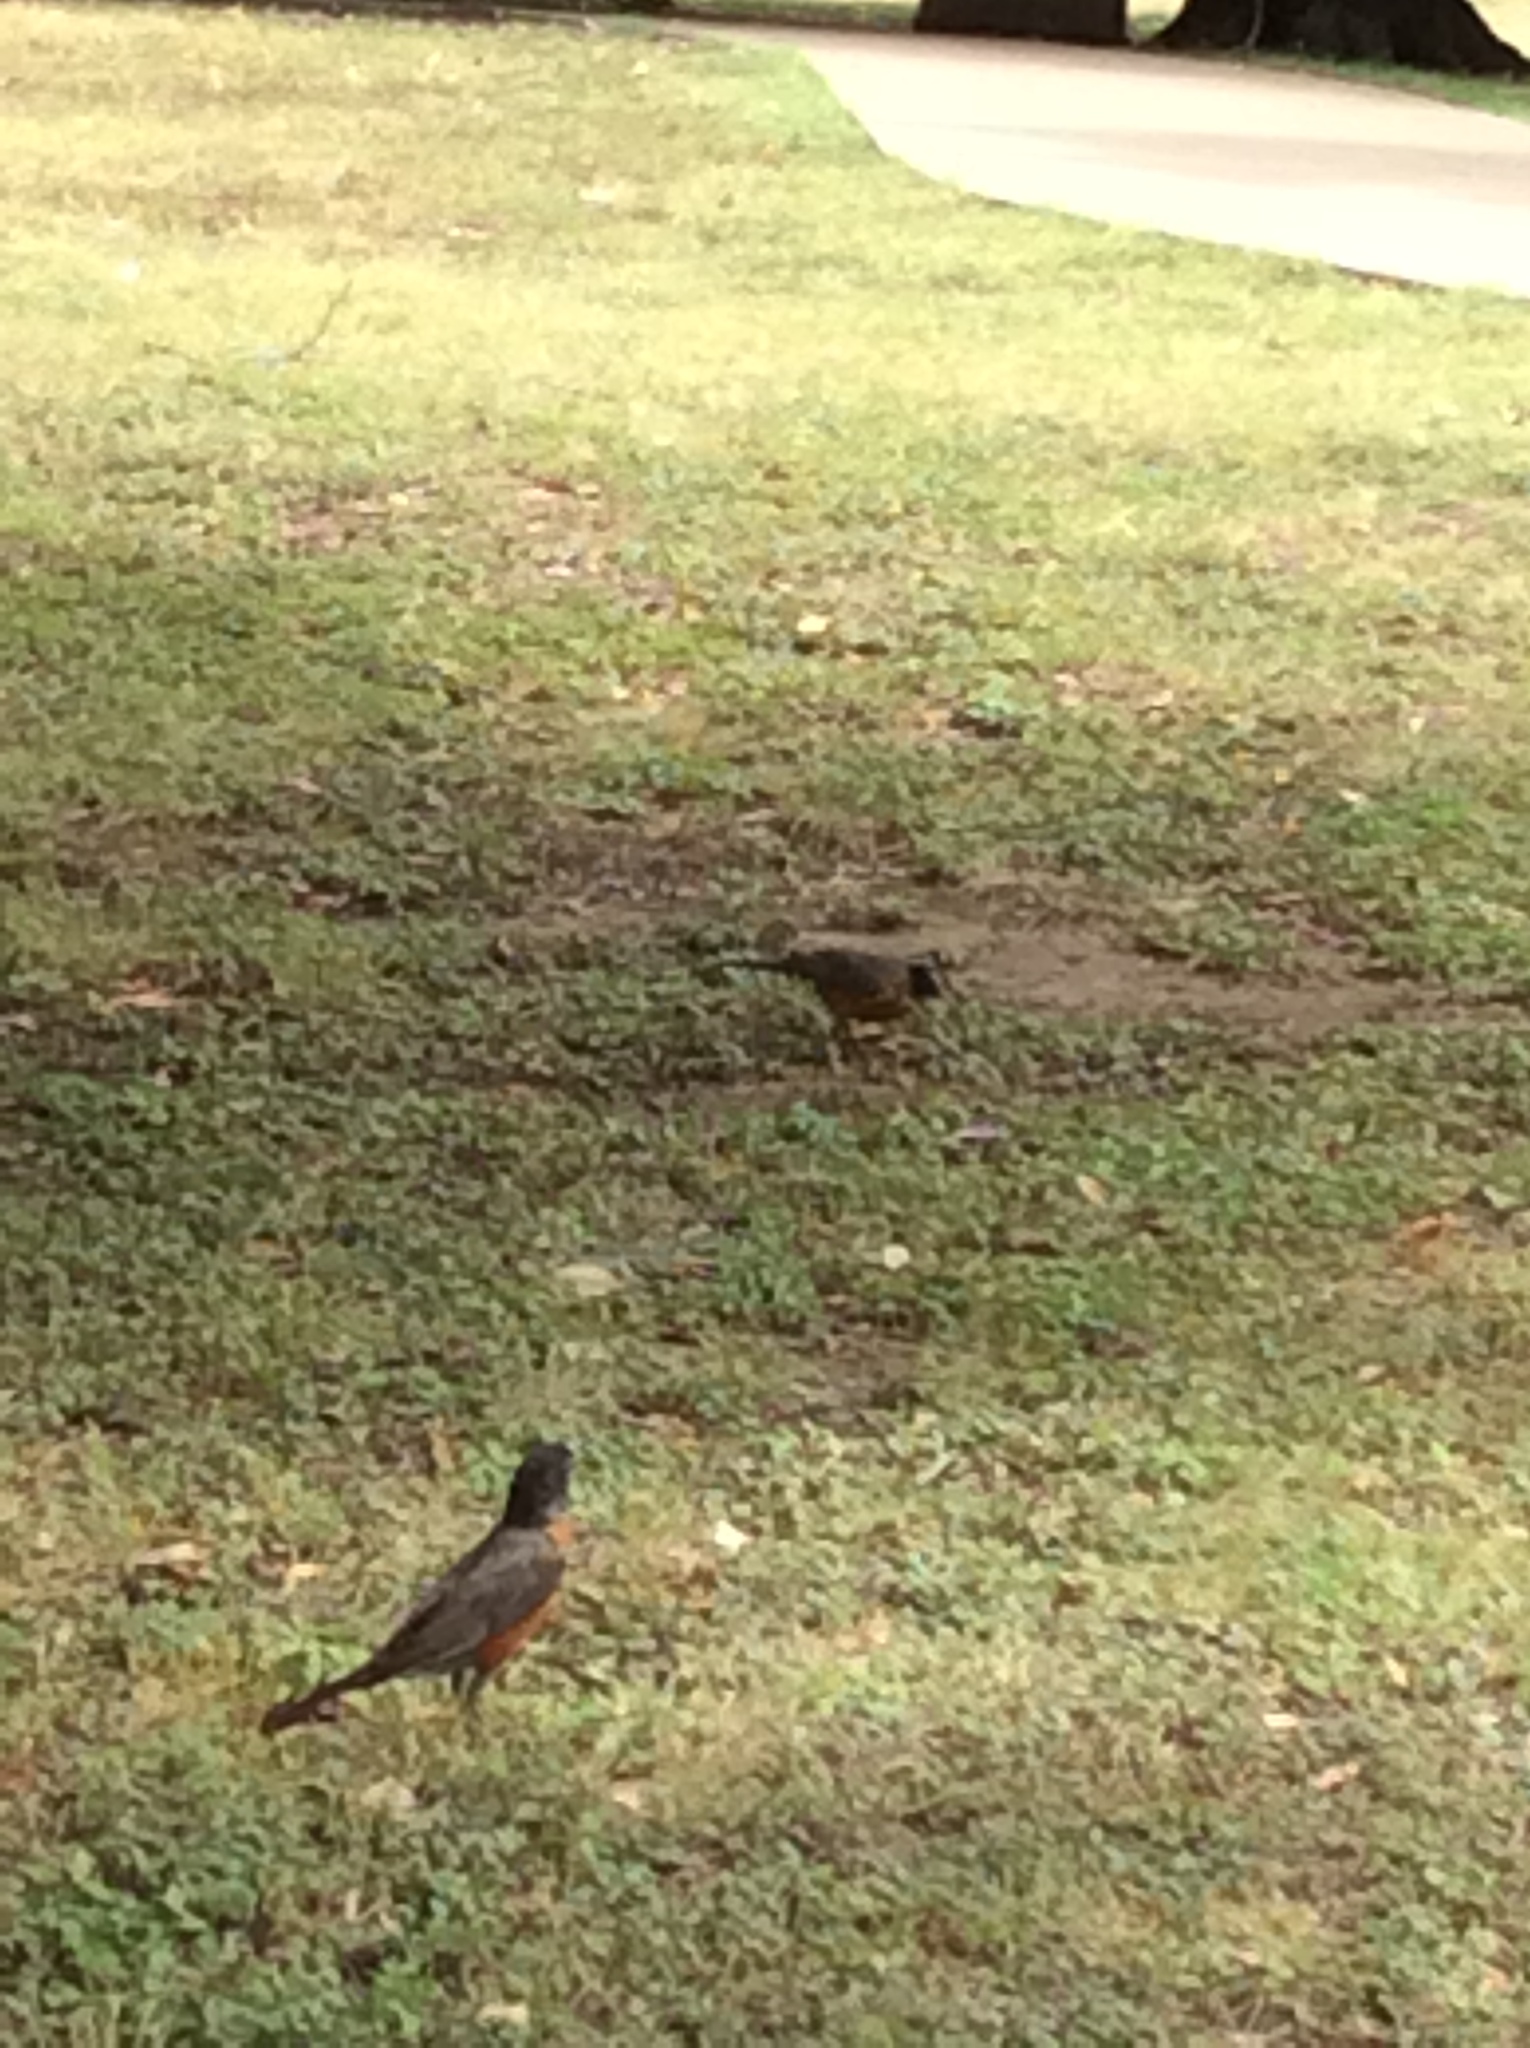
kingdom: Animalia
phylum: Chordata
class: Aves
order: Passeriformes
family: Turdidae
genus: Turdus
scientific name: Turdus migratorius
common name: American robin
